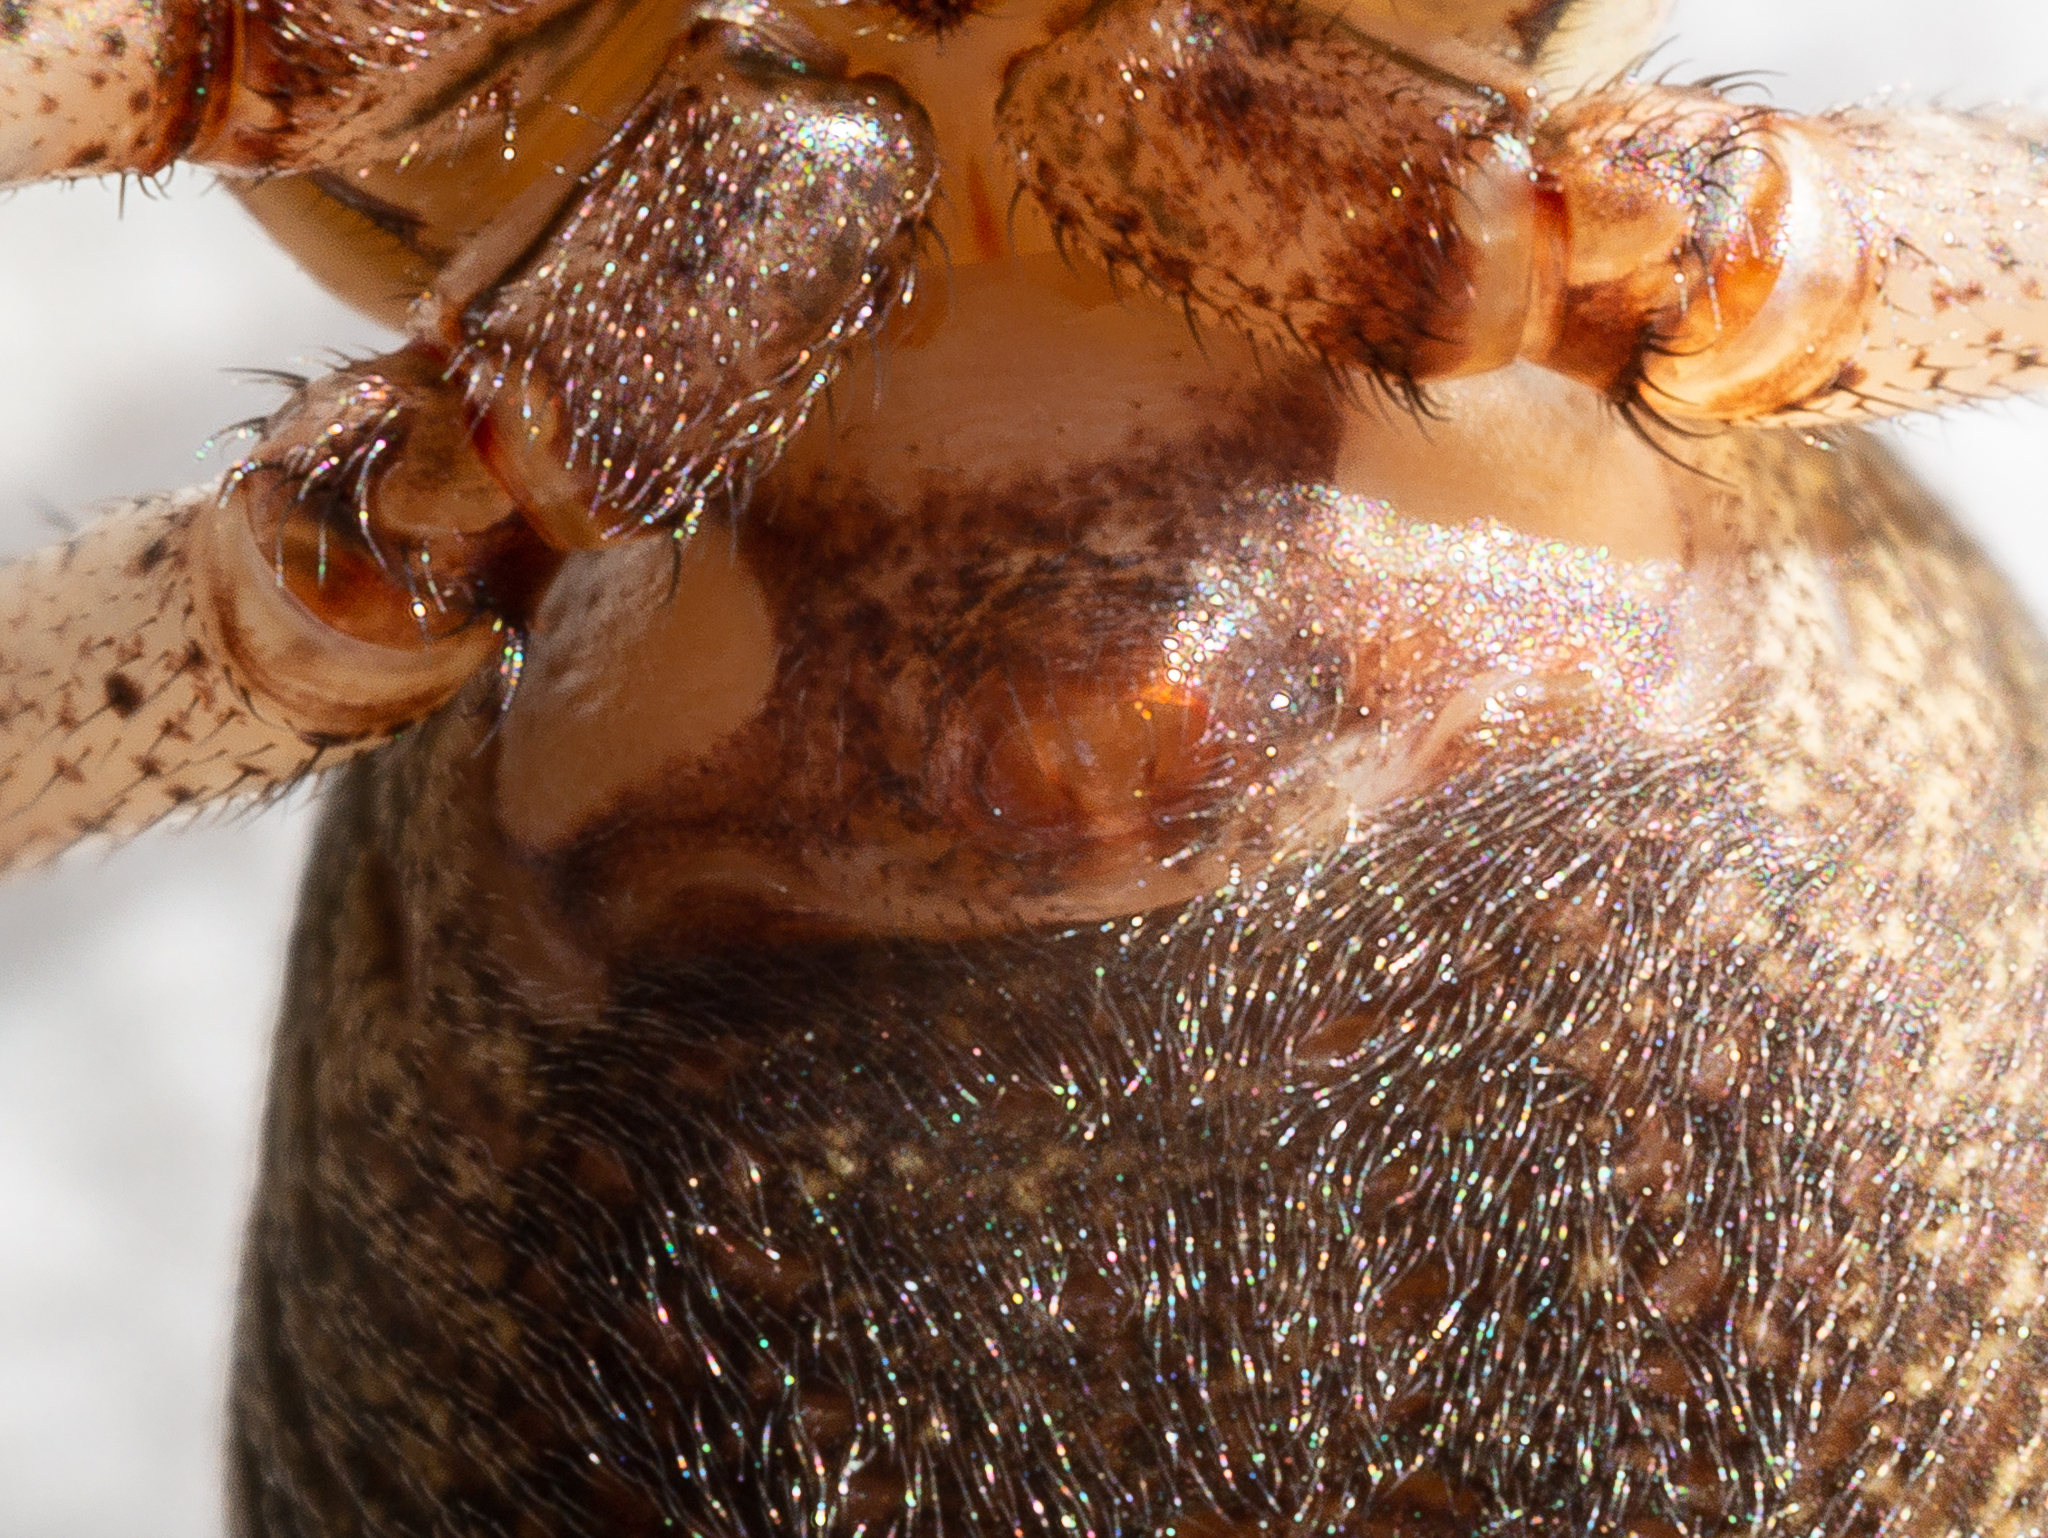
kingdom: Animalia
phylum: Arthropoda
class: Arachnida
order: Araneae
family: Thomisidae
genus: Xysticus
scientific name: Xysticus luctator
